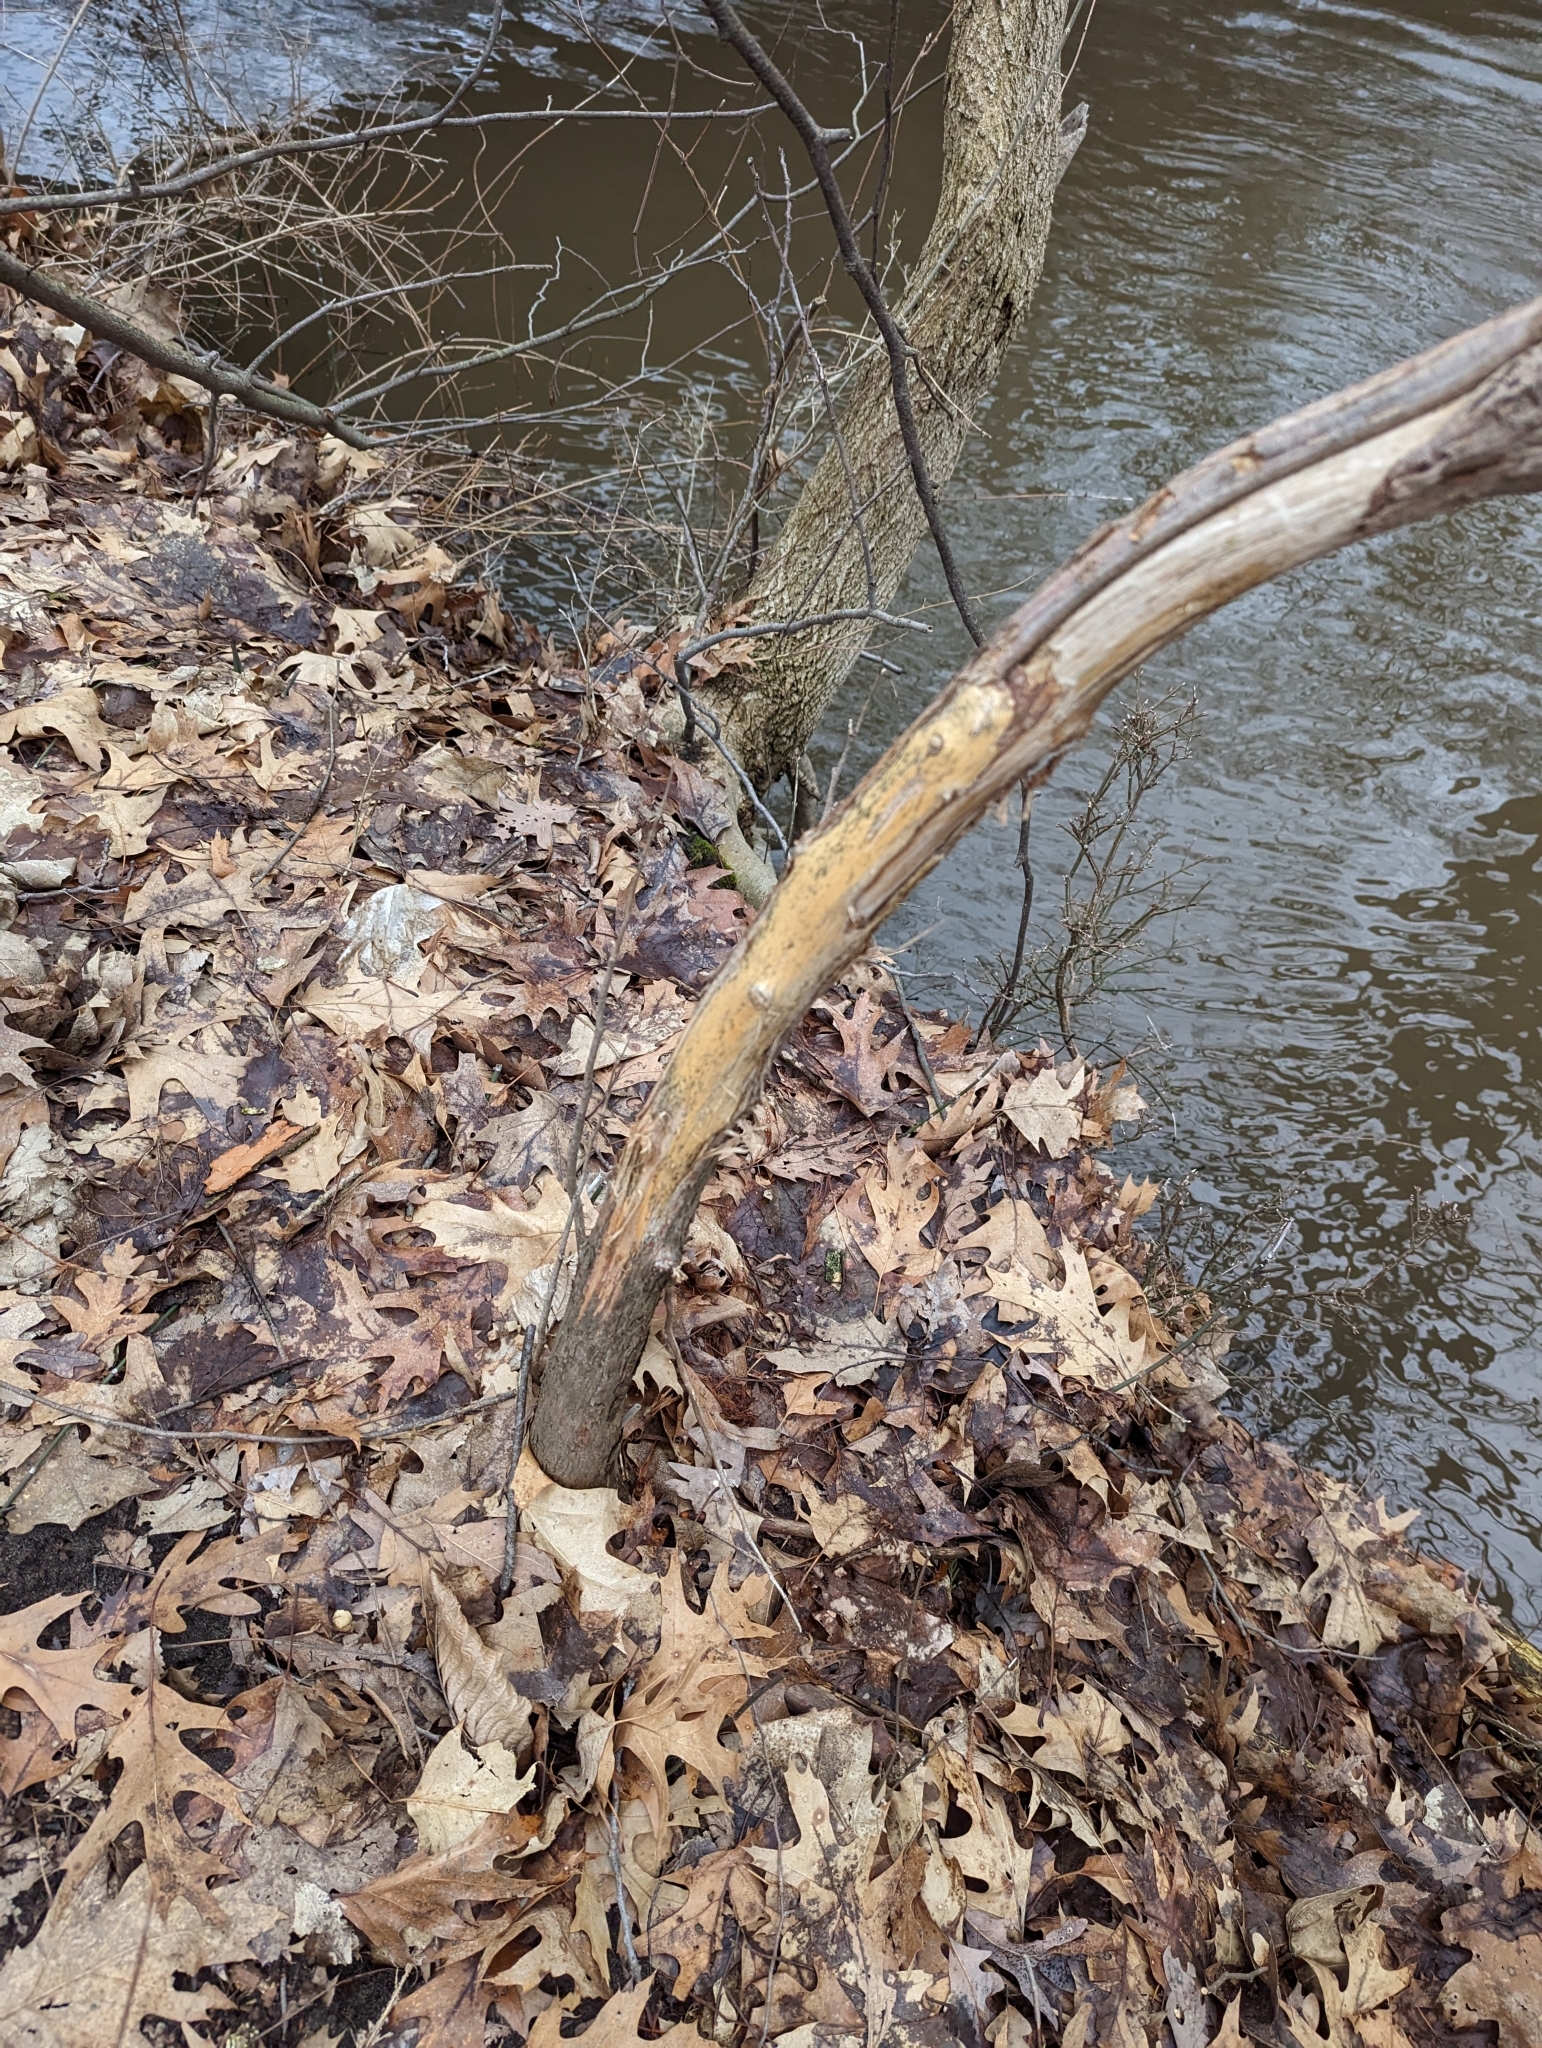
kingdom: Animalia
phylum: Chordata
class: Mammalia
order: Artiodactyla
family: Cervidae
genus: Odocoileus
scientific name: Odocoileus virginianus
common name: White-tailed deer
